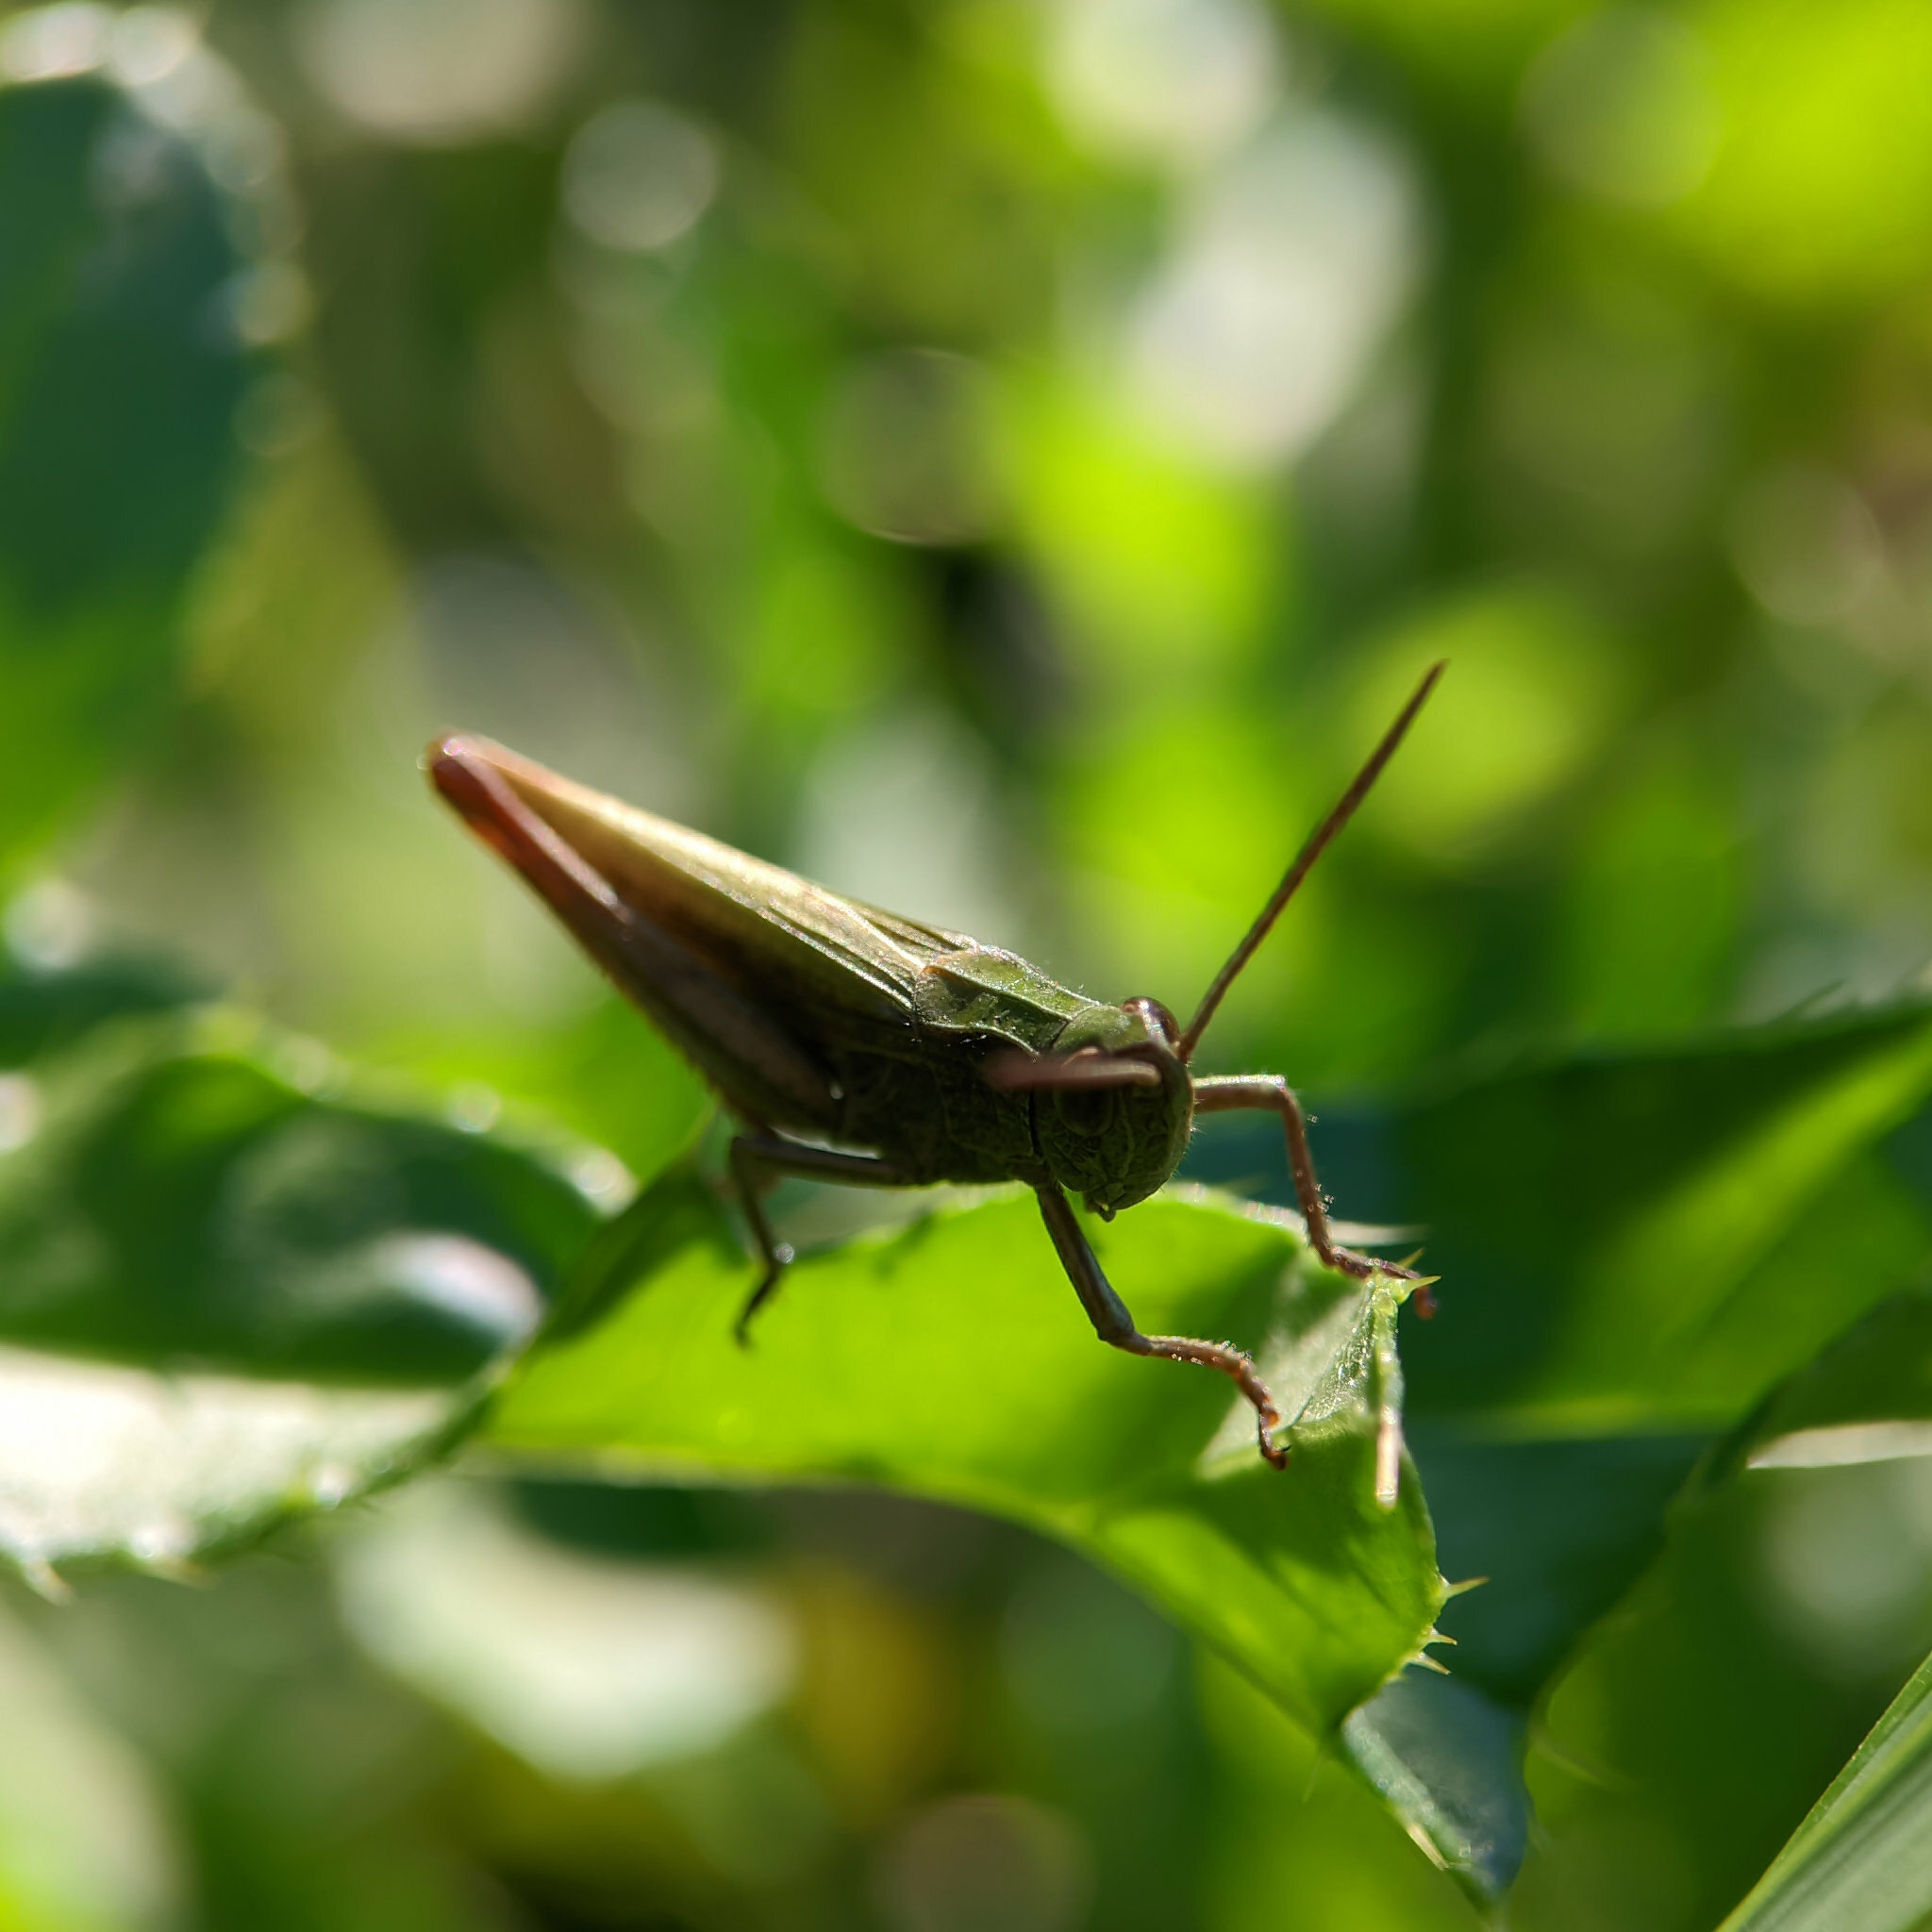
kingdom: Animalia
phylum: Arthropoda
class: Insecta
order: Orthoptera
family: Acrididae
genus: Chorthippus
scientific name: Chorthippus dorsatus
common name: Steppe grasshopper
